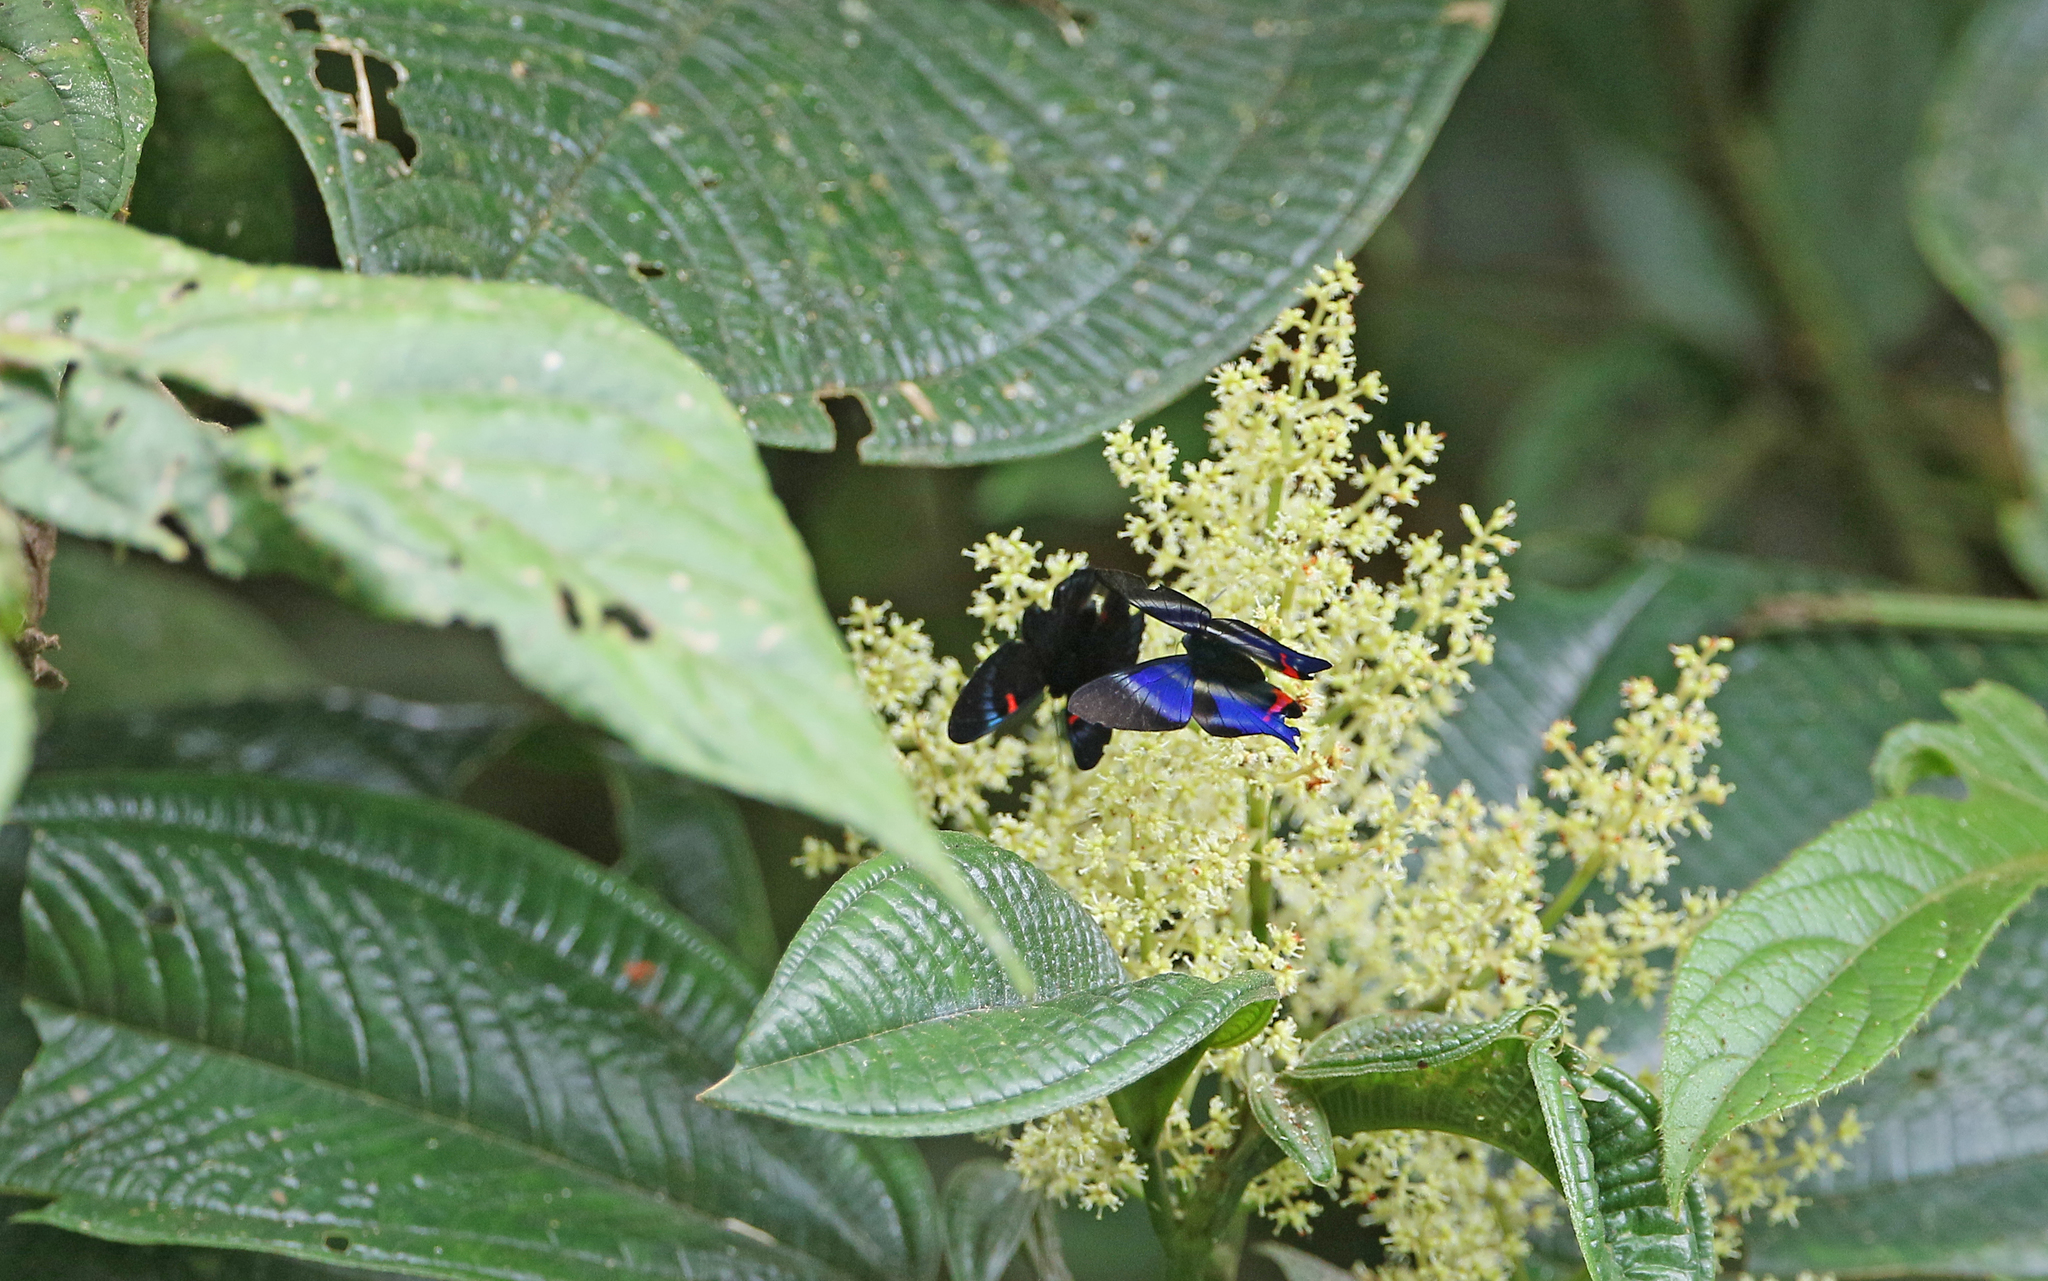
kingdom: Animalia
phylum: Arthropoda
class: Insecta
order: Lepidoptera
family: Riodinidae
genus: Rhetus
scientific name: Rhetus dysonii
